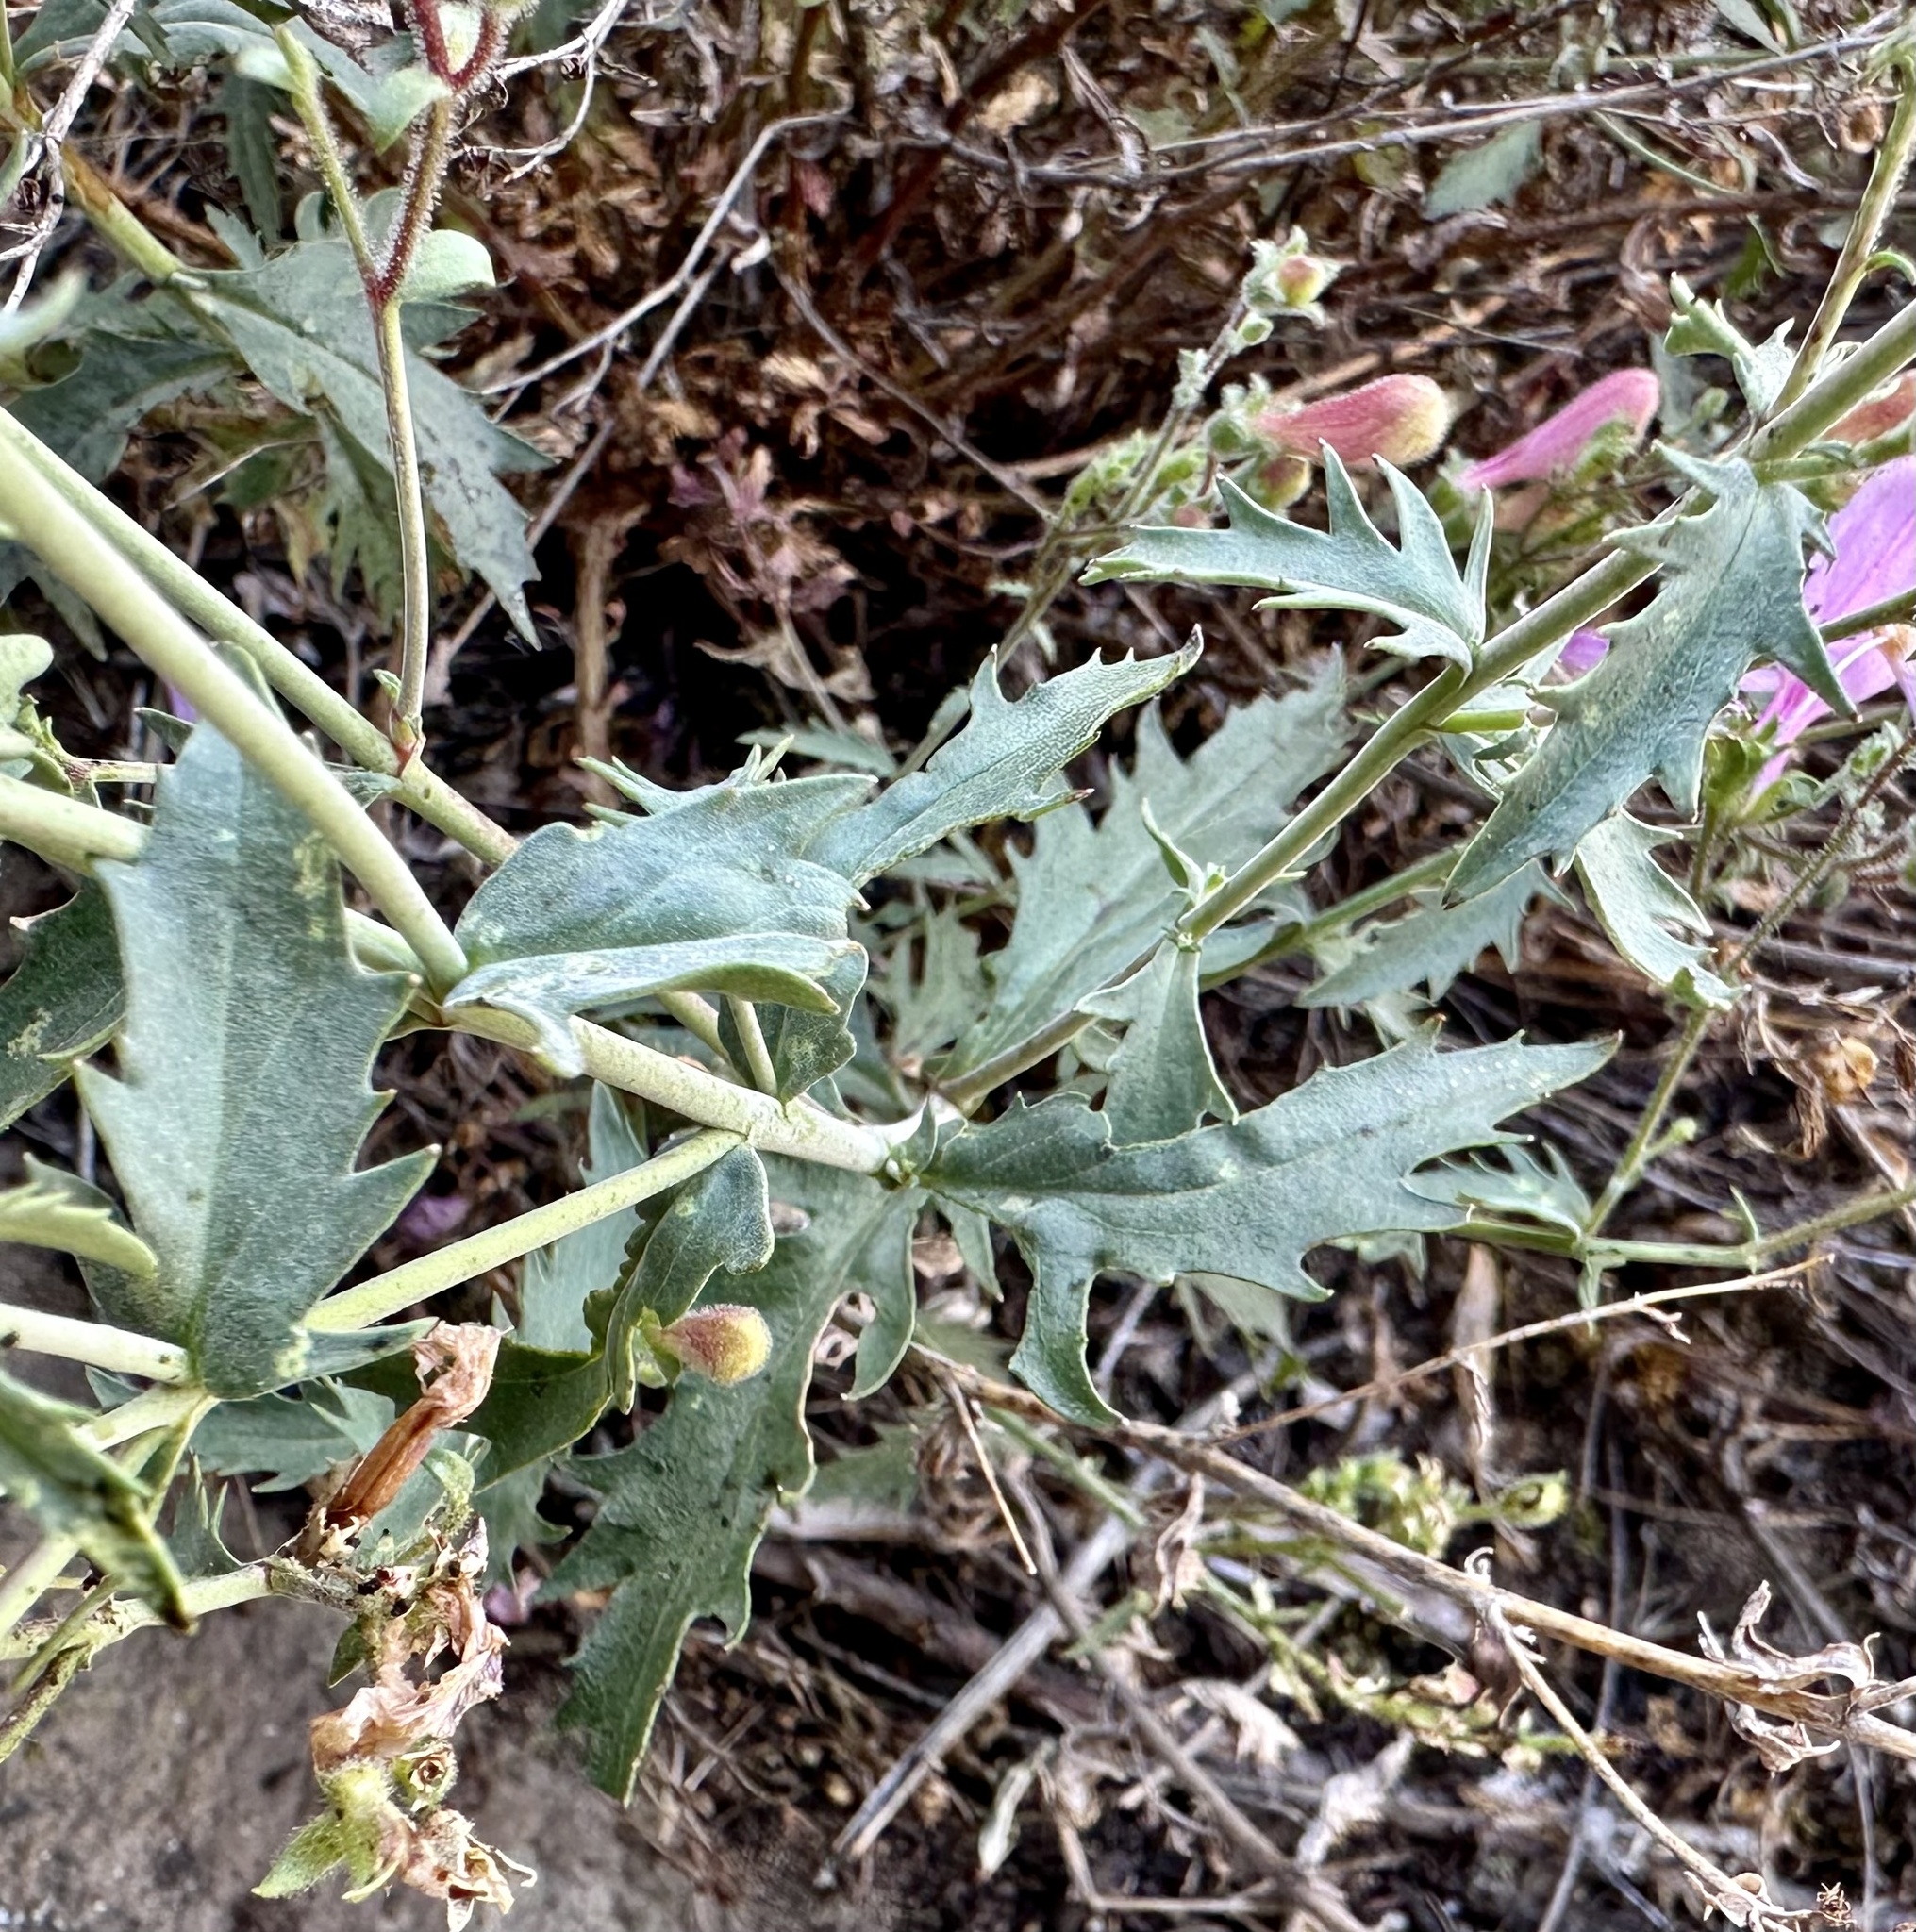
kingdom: Plantae
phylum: Tracheophyta
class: Magnoliopsida
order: Lamiales
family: Plantaginaceae
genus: Penstemon
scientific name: Penstemon richardsonii
